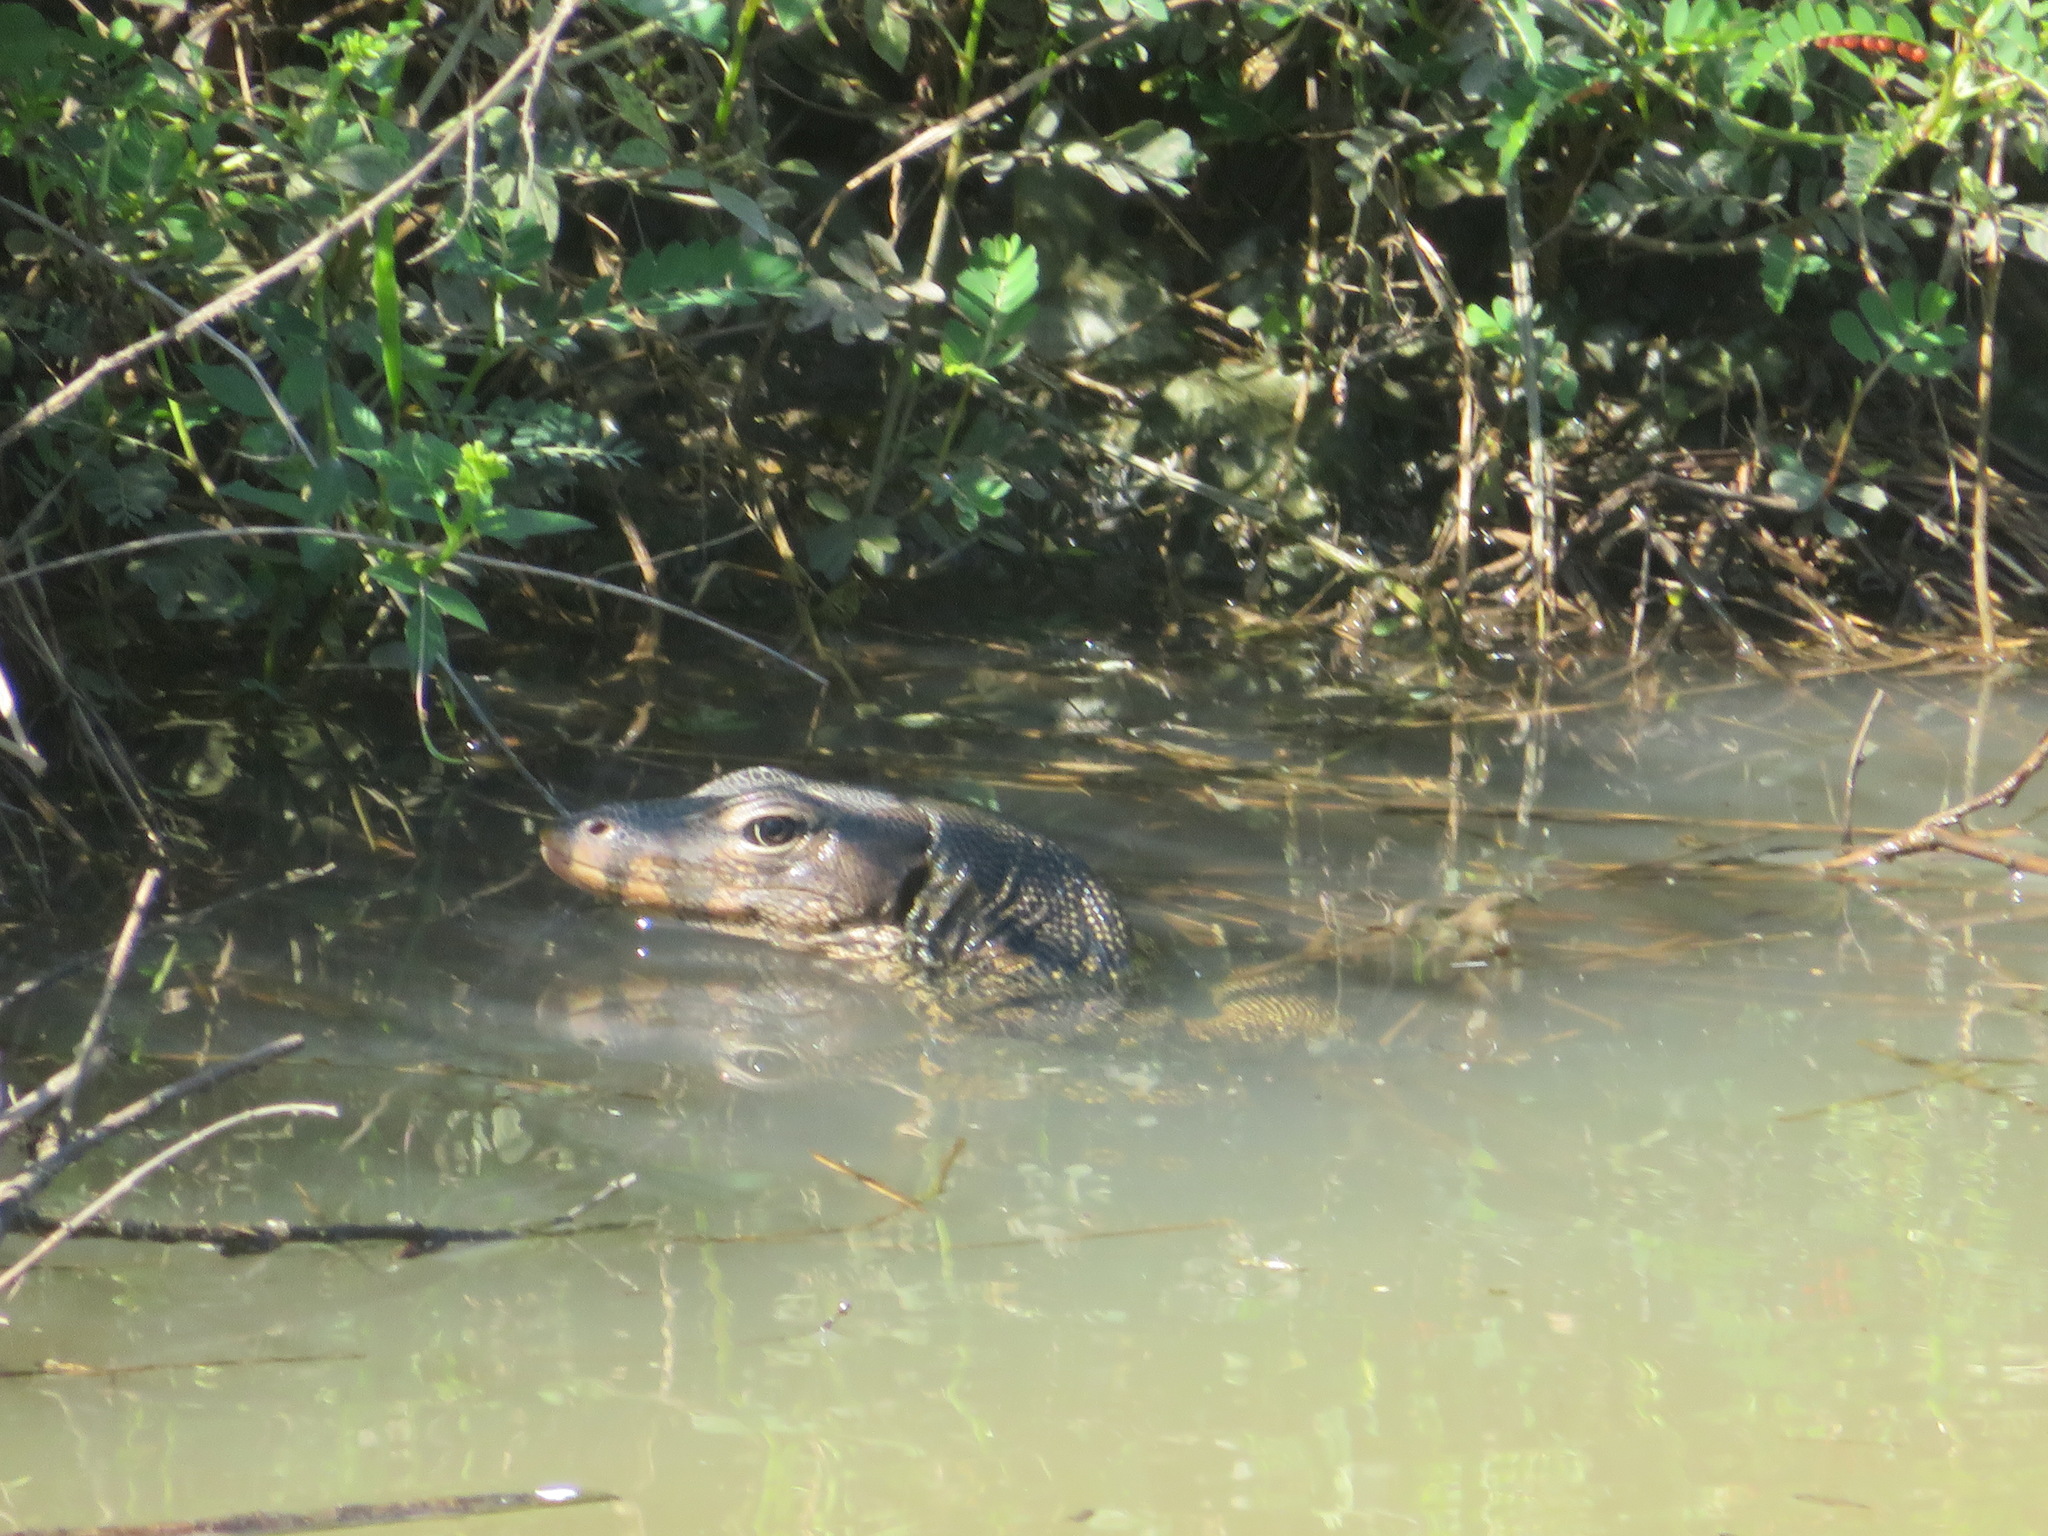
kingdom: Animalia
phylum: Chordata
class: Squamata
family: Varanidae
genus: Varanus
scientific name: Varanus salvator
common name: Common water monitor
